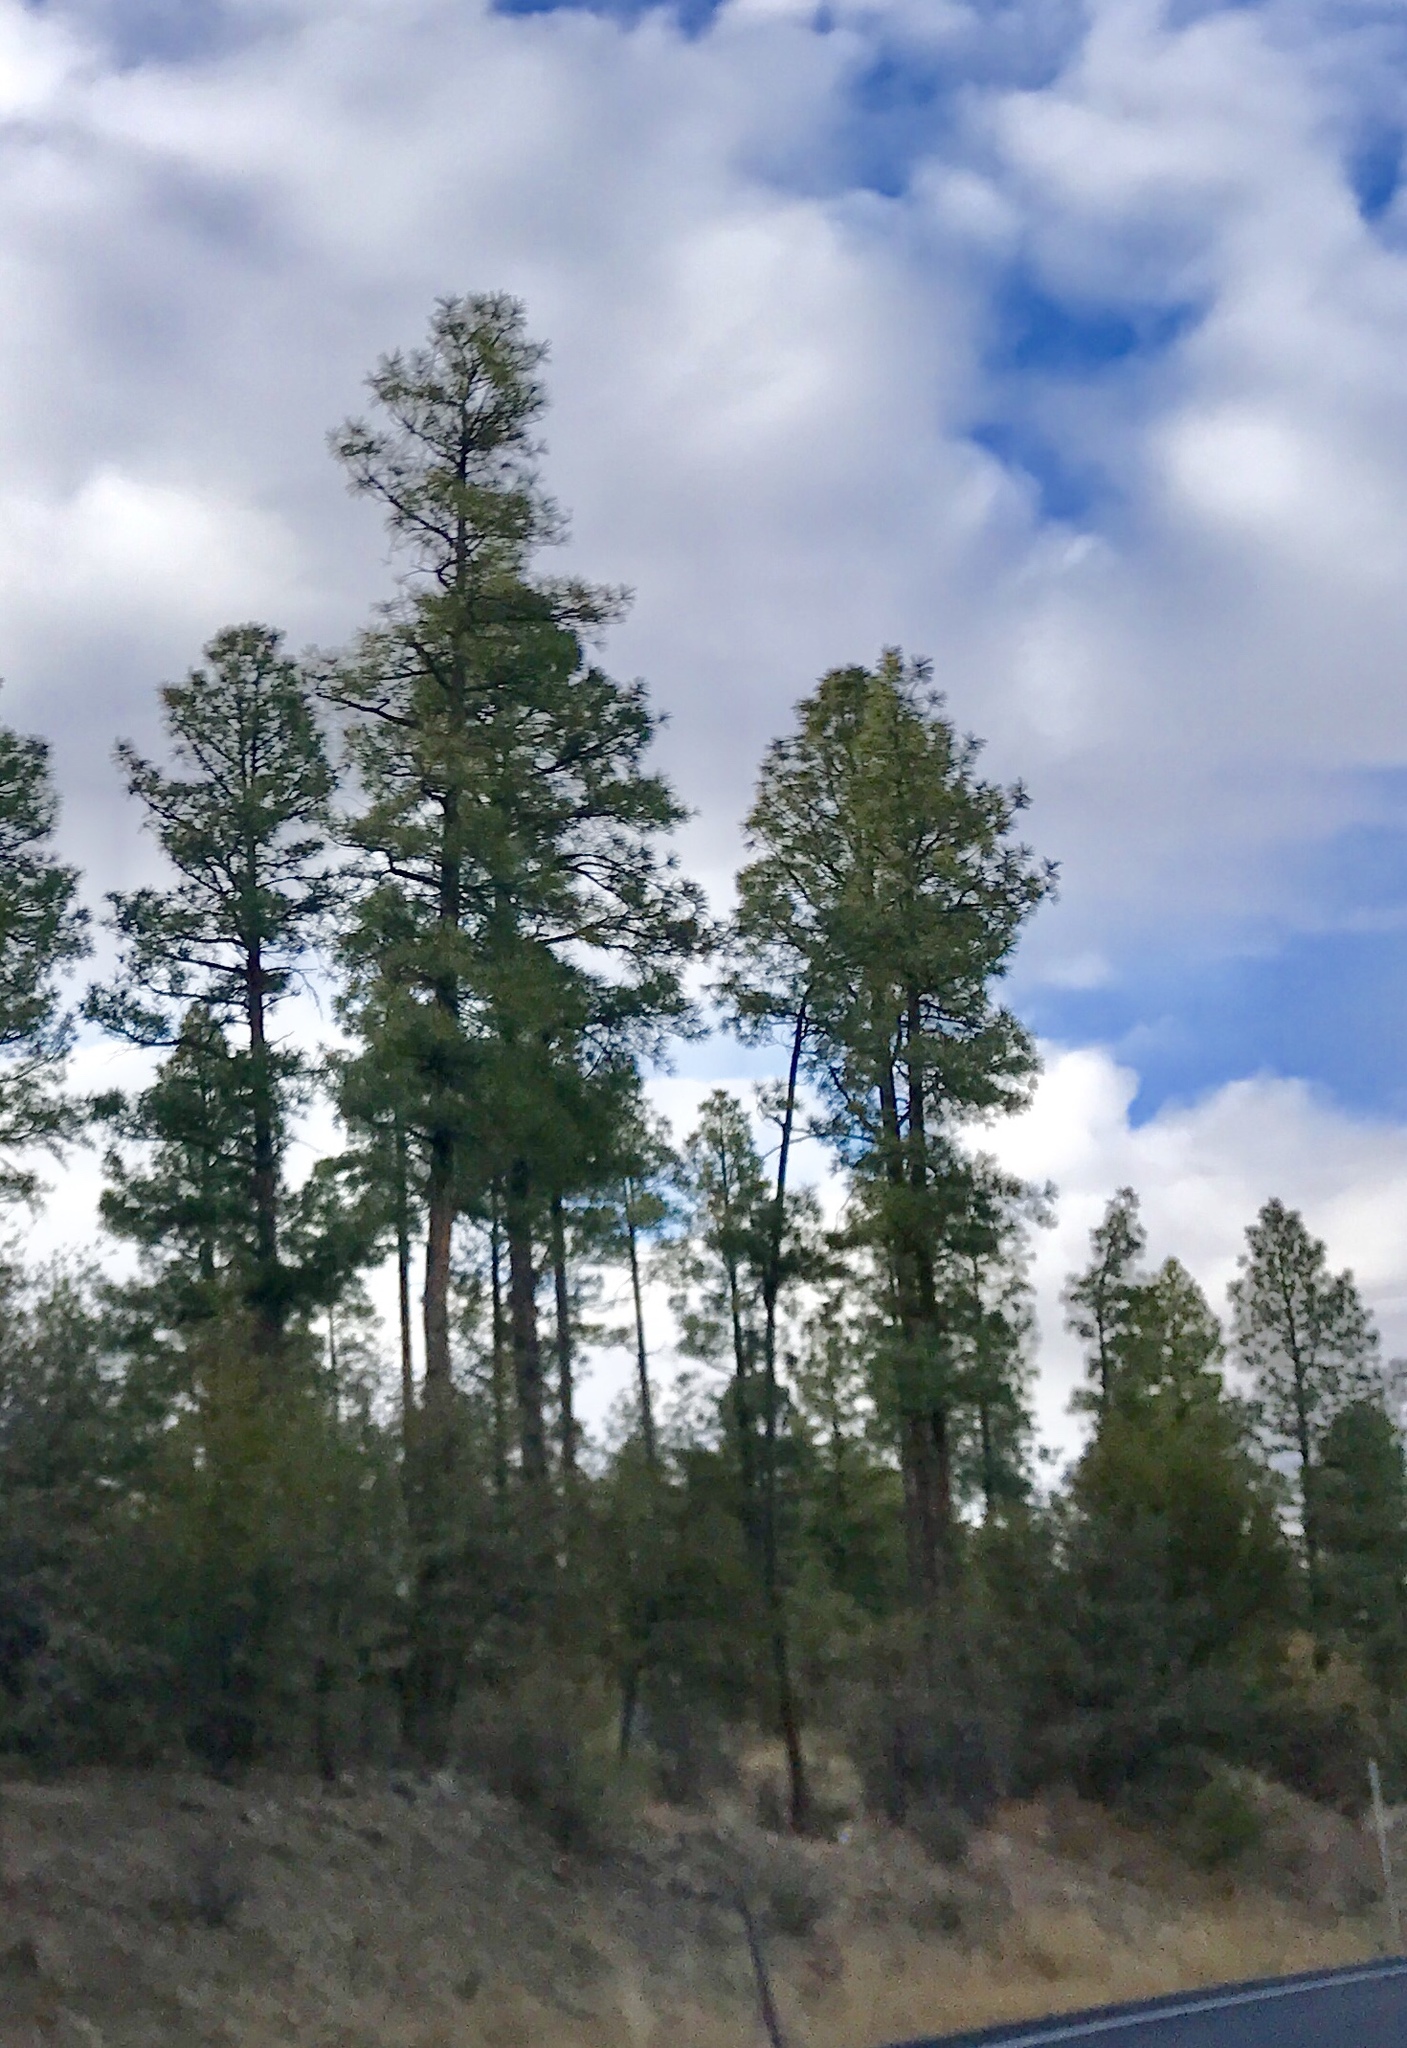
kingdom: Plantae
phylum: Tracheophyta
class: Pinopsida
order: Pinales
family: Pinaceae
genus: Pinus
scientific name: Pinus ponderosa
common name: Western yellow-pine
